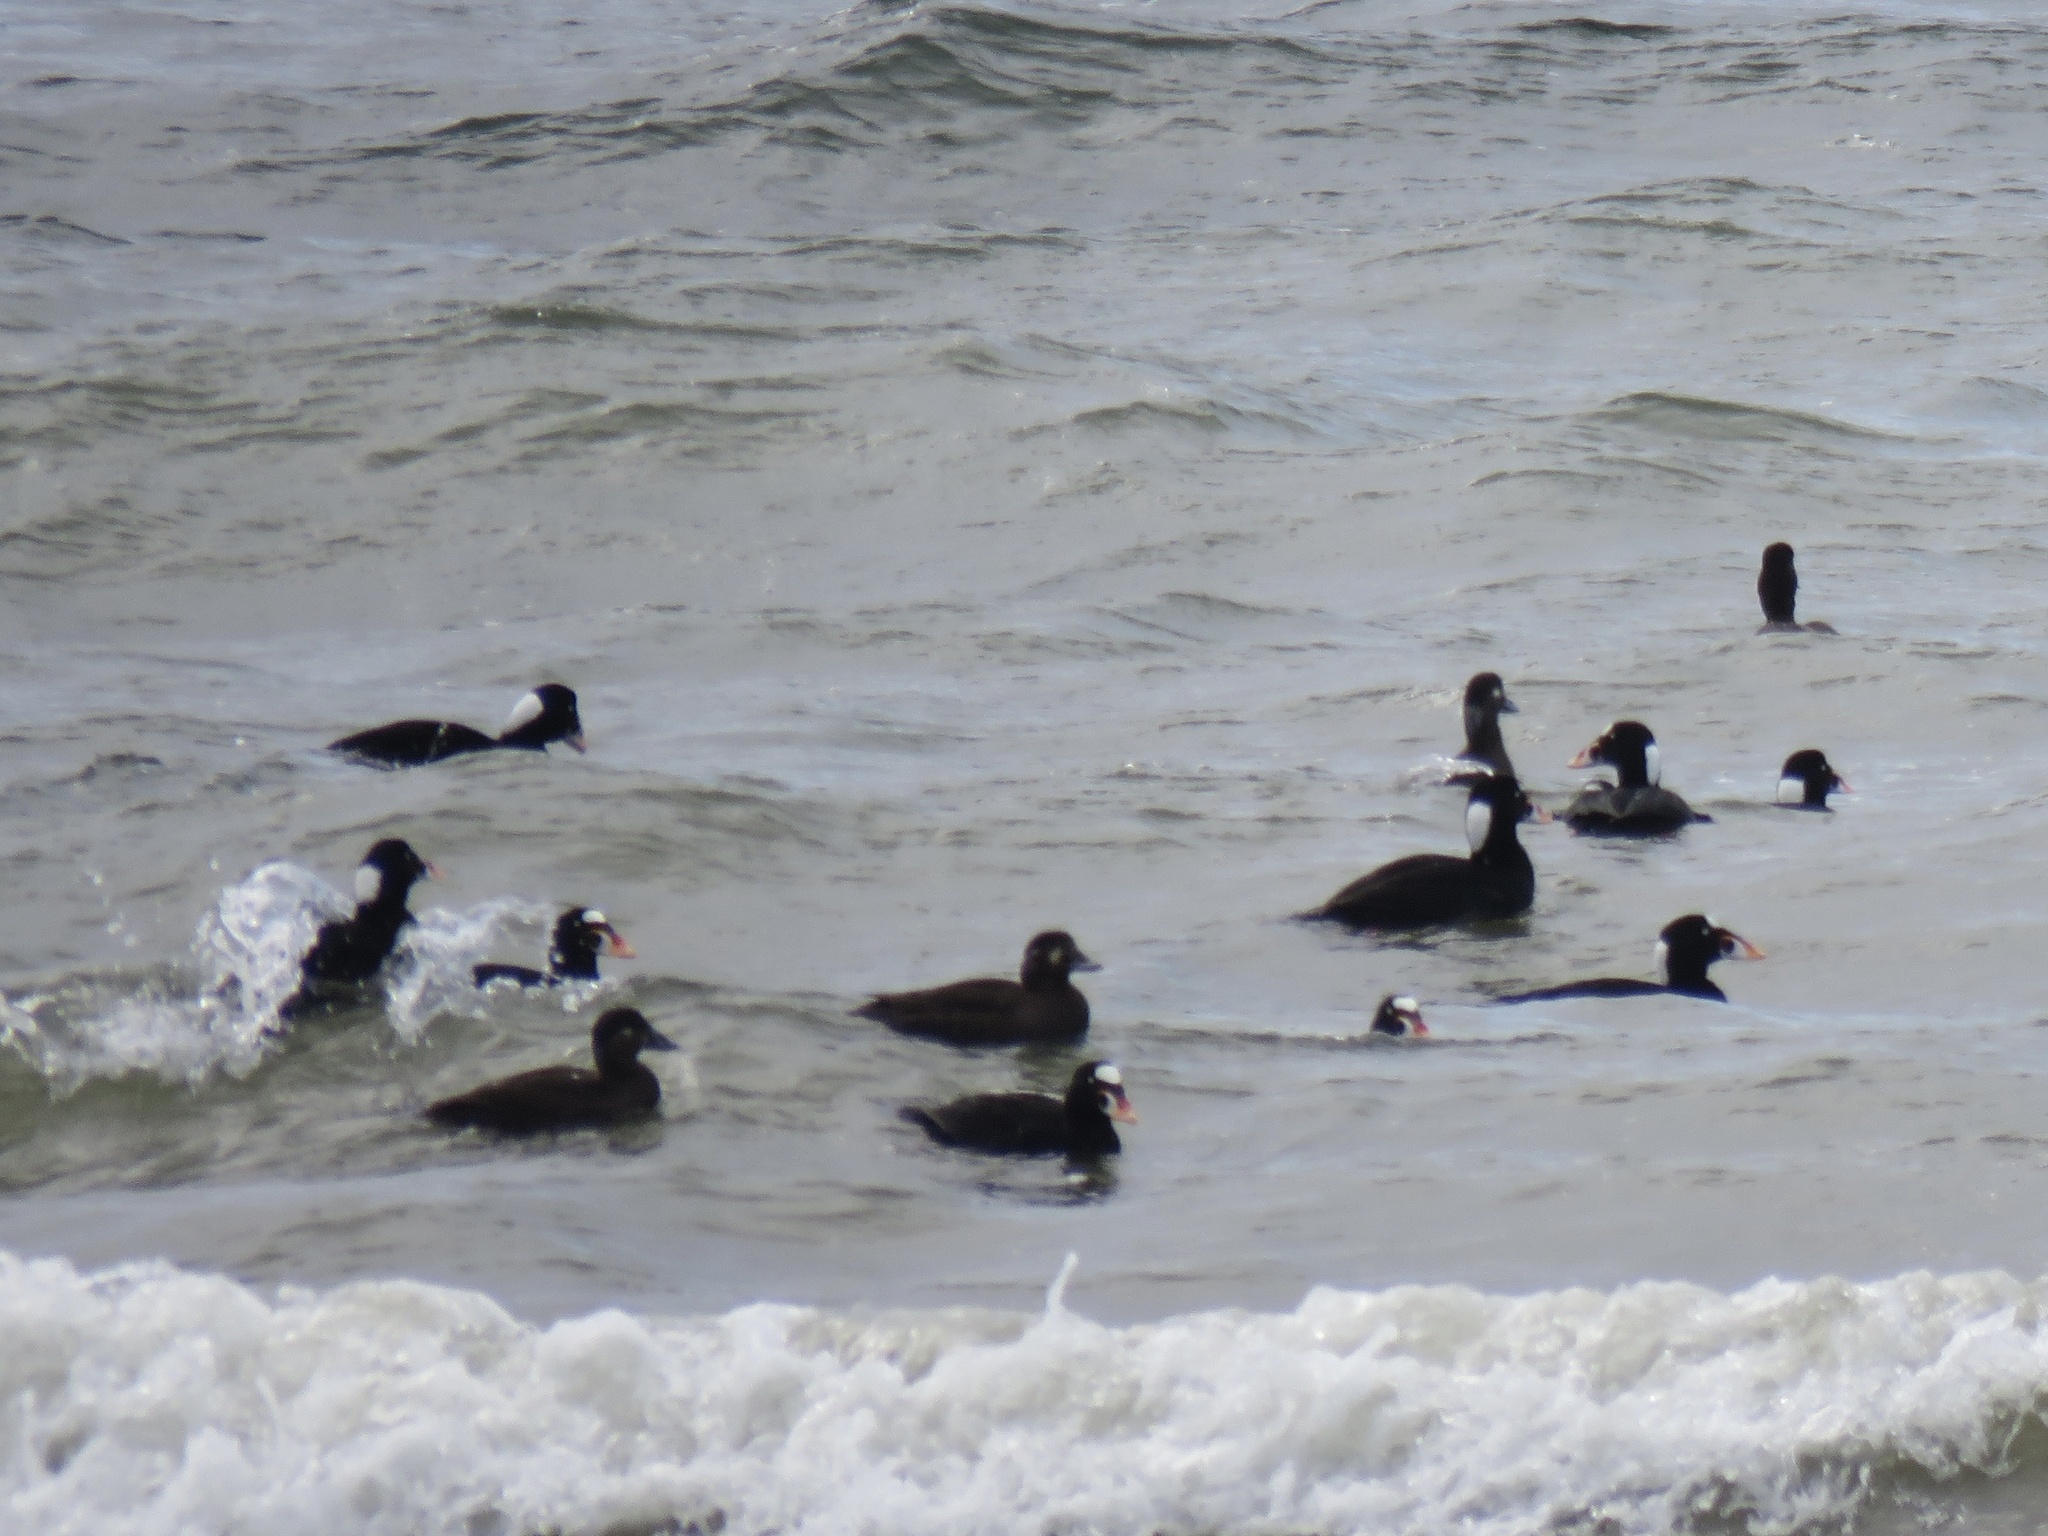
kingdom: Animalia
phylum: Chordata
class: Aves
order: Anseriformes
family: Anatidae
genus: Melanitta
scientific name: Melanitta perspicillata
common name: Surf scoter
